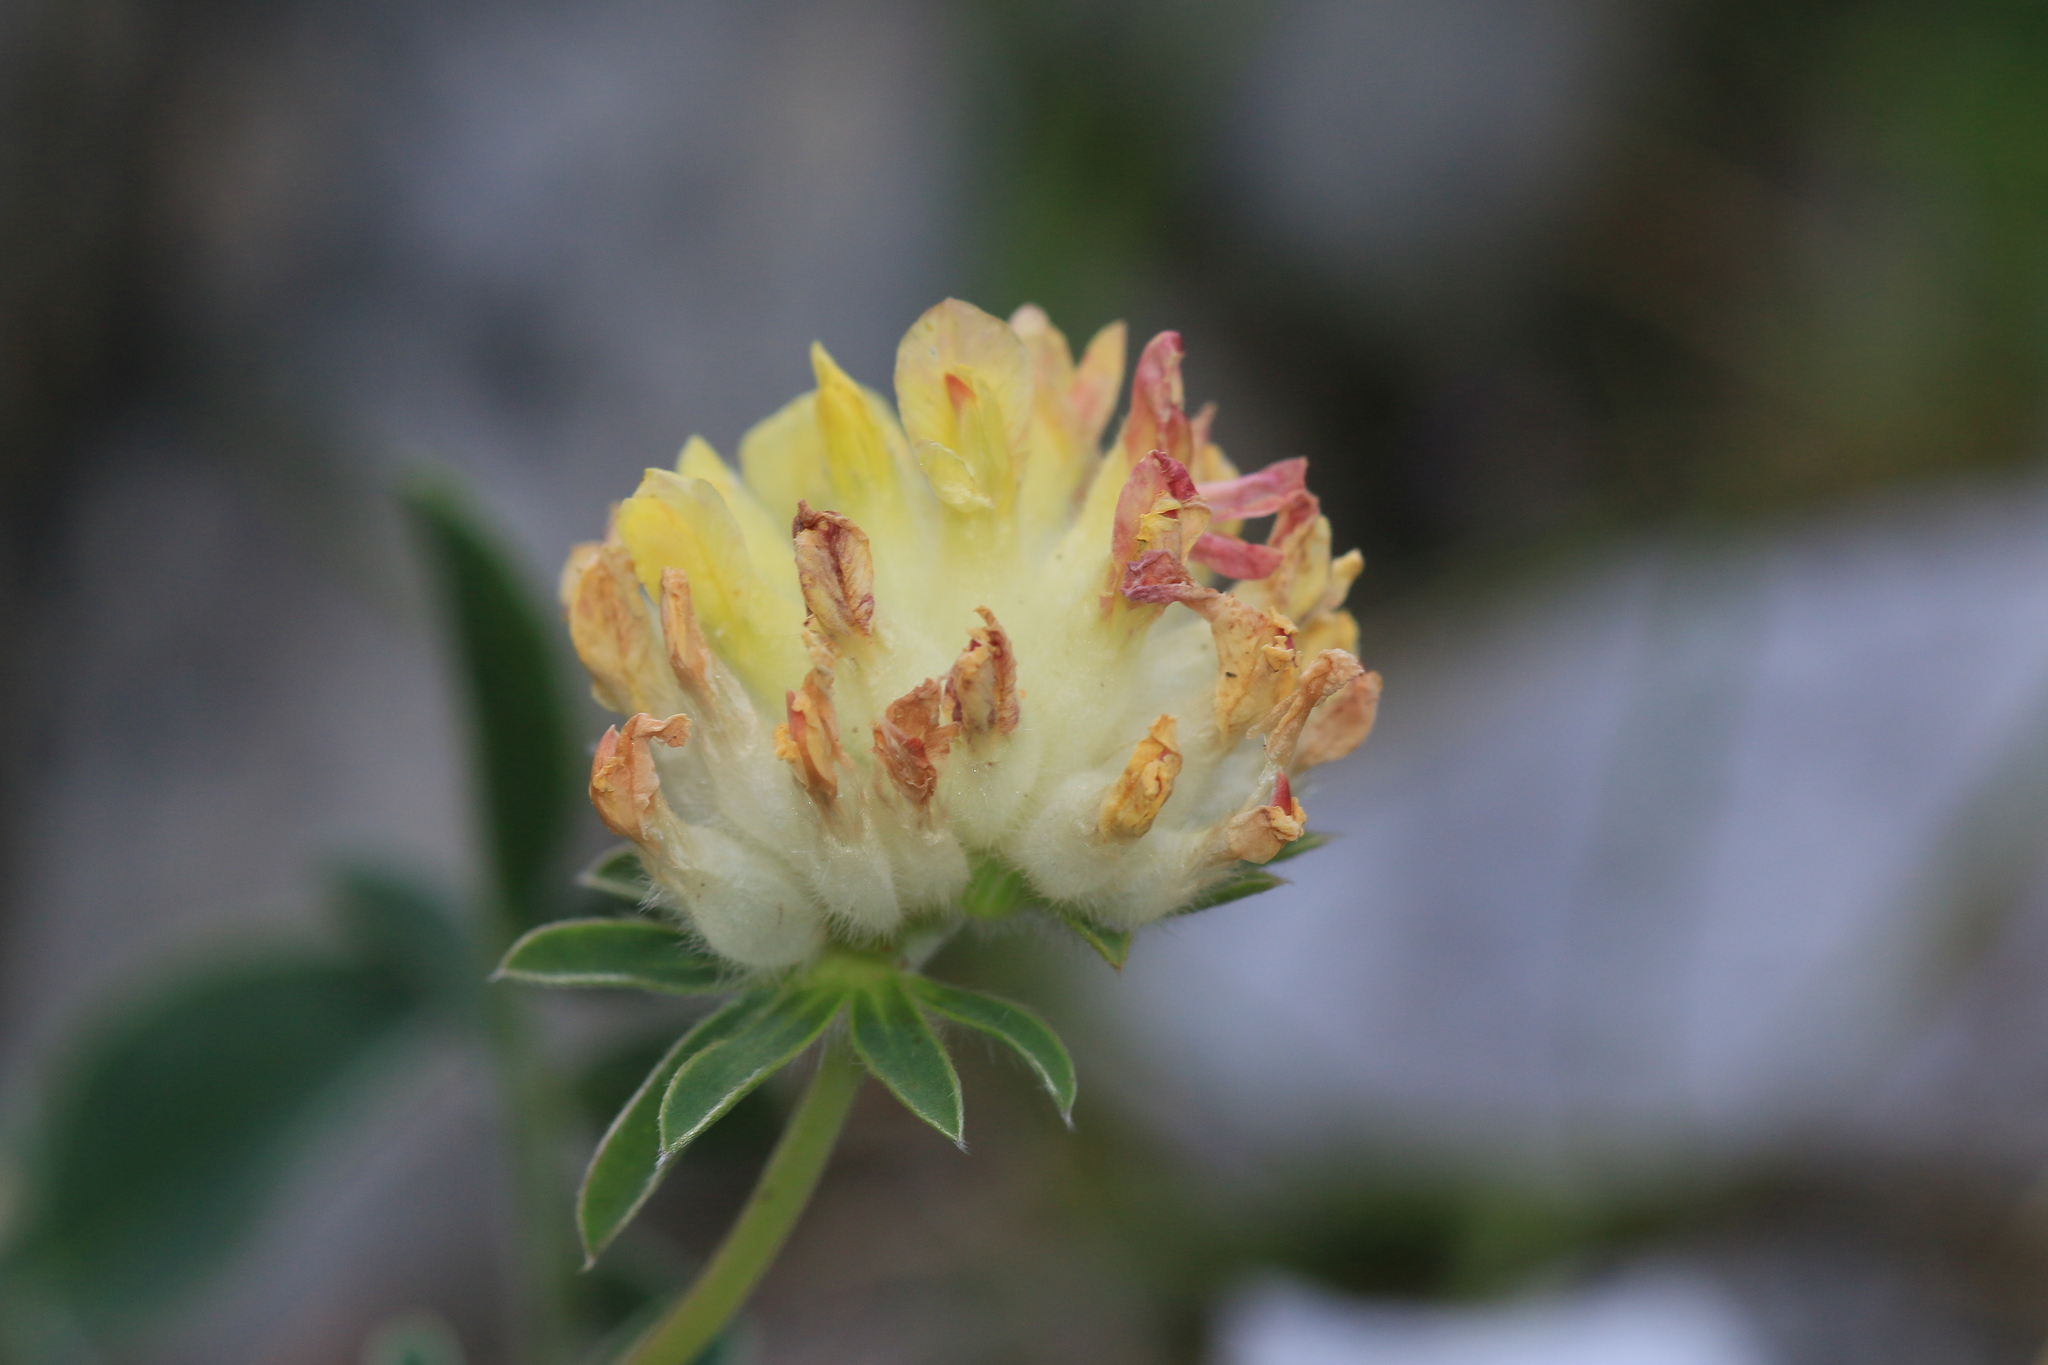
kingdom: Plantae
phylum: Tracheophyta
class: Magnoliopsida
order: Fabales
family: Fabaceae
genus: Anthyllis
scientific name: Anthyllis vulneraria
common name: Kidney vetch
